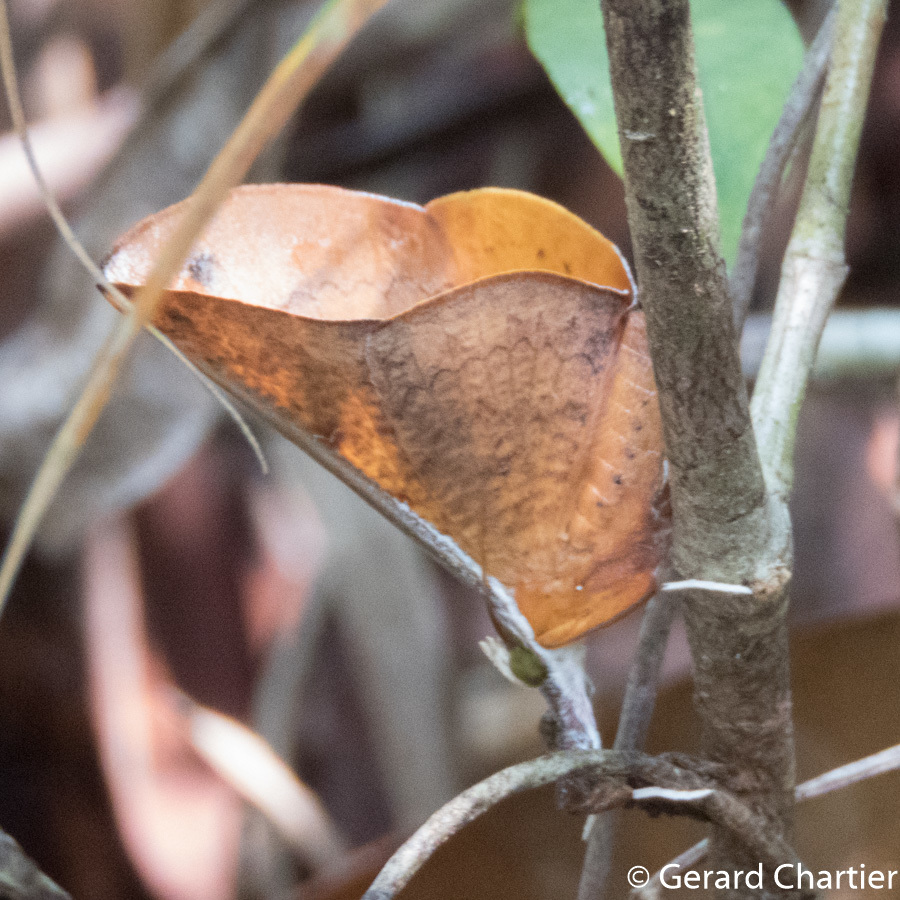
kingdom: Animalia
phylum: Arthropoda
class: Insecta
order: Lepidoptera
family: Erebidae
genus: Bematha
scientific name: Bematha extensa
